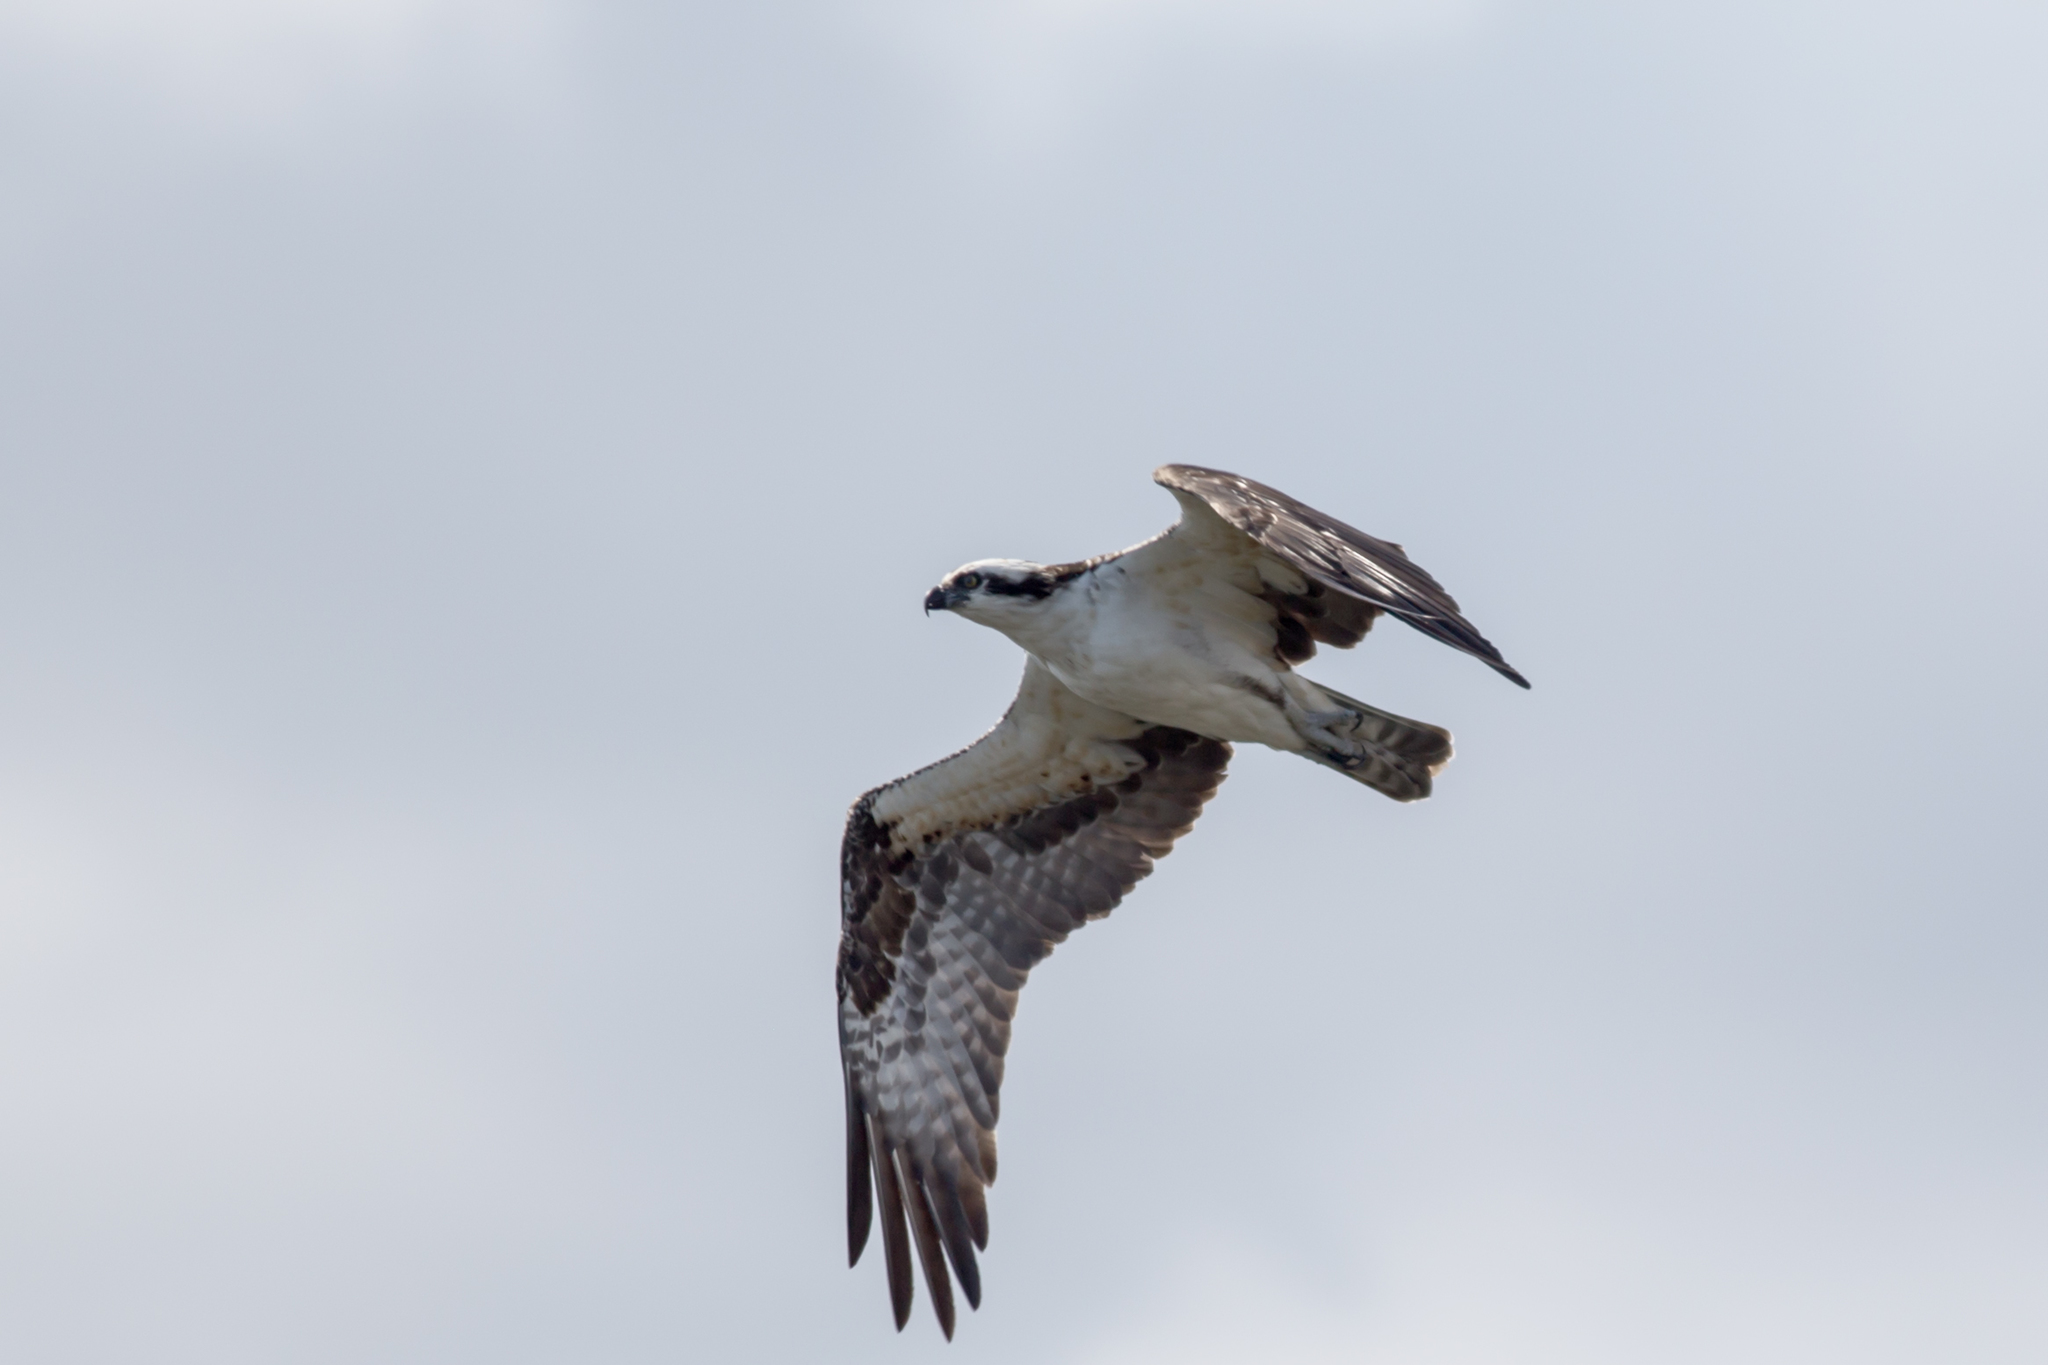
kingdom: Animalia
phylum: Chordata
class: Aves
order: Accipitriformes
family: Pandionidae
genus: Pandion
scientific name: Pandion haliaetus
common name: Osprey
